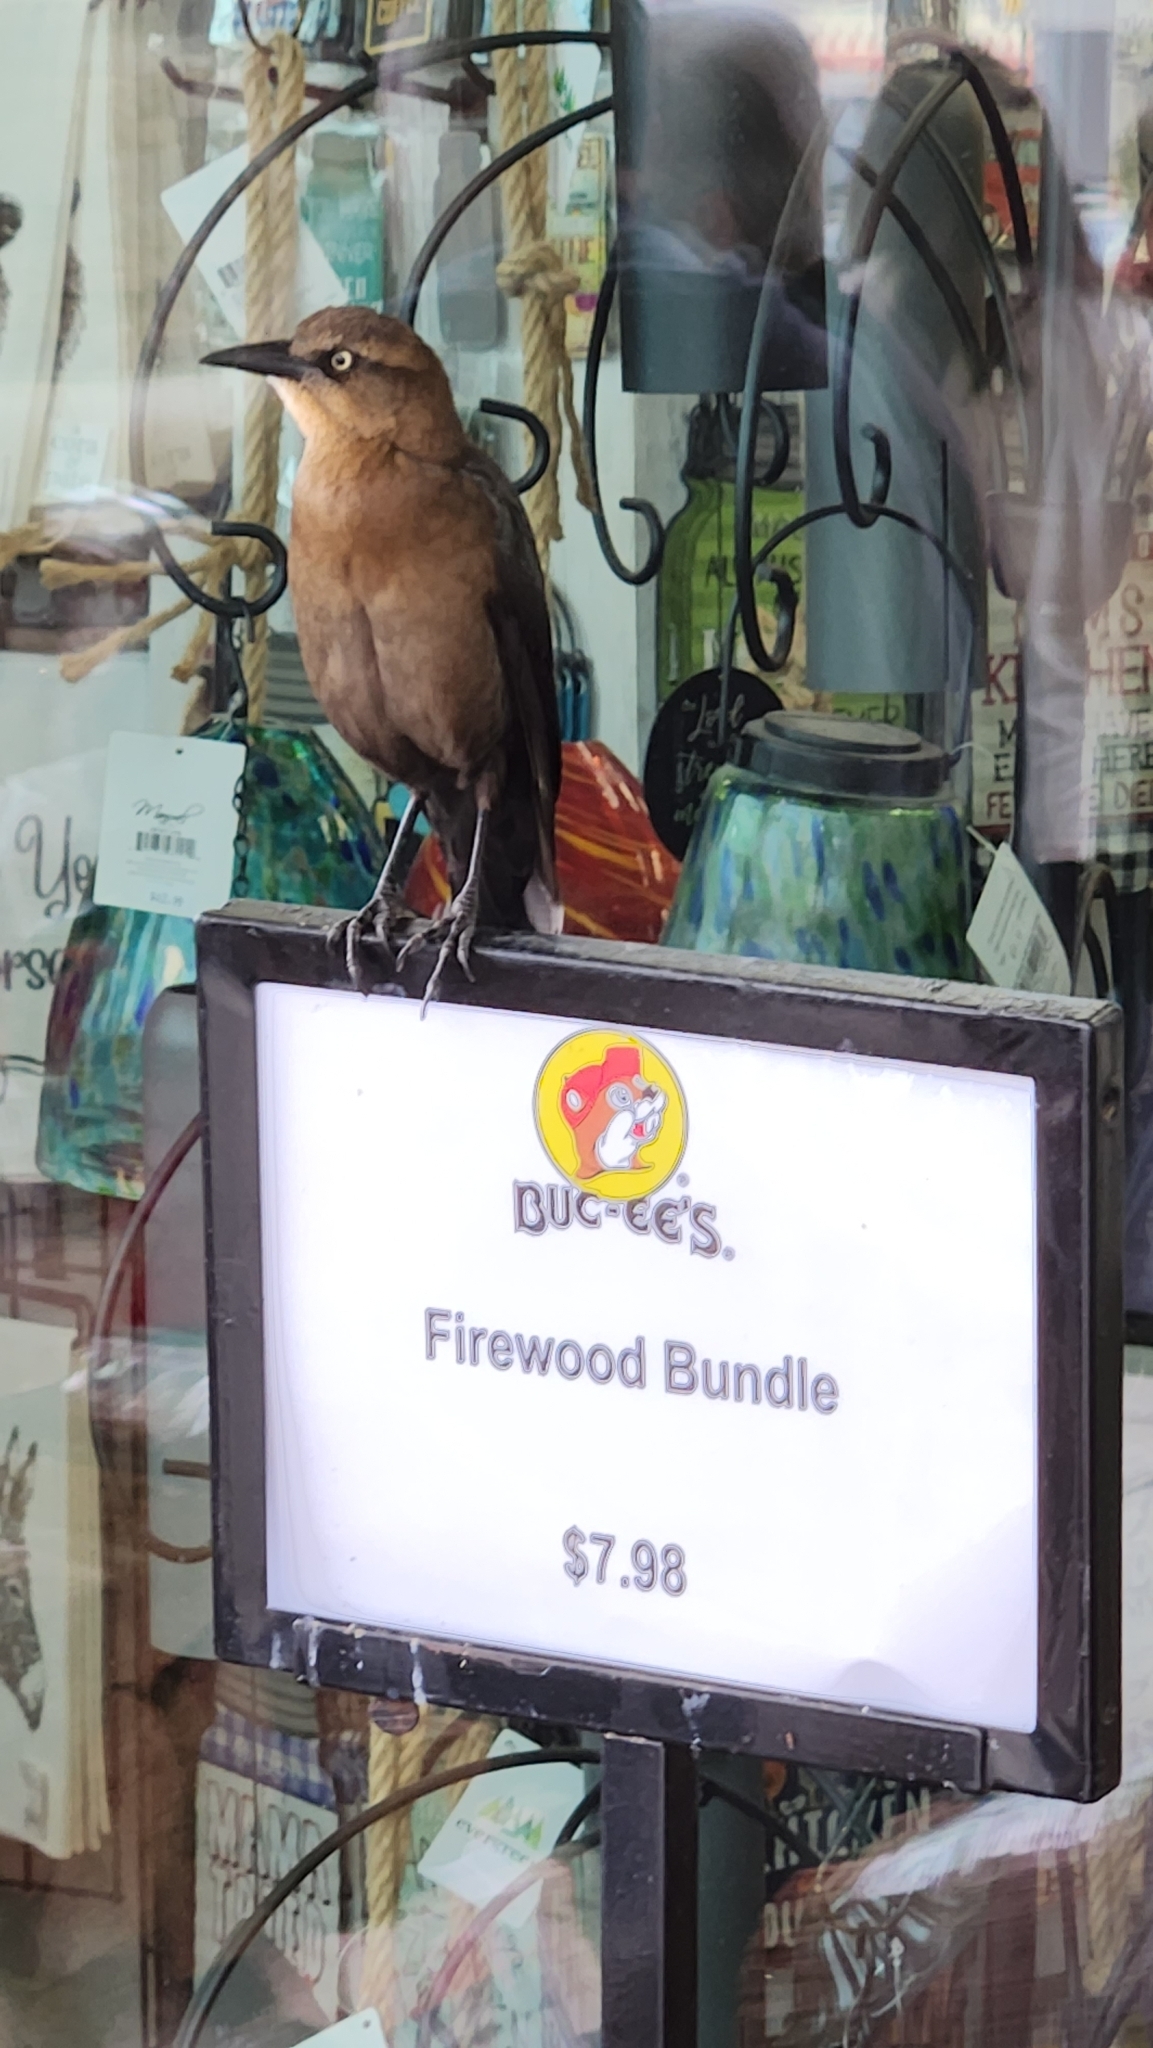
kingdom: Animalia
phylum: Chordata
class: Aves
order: Passeriformes
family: Icteridae
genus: Quiscalus
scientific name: Quiscalus mexicanus
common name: Great-tailed grackle
